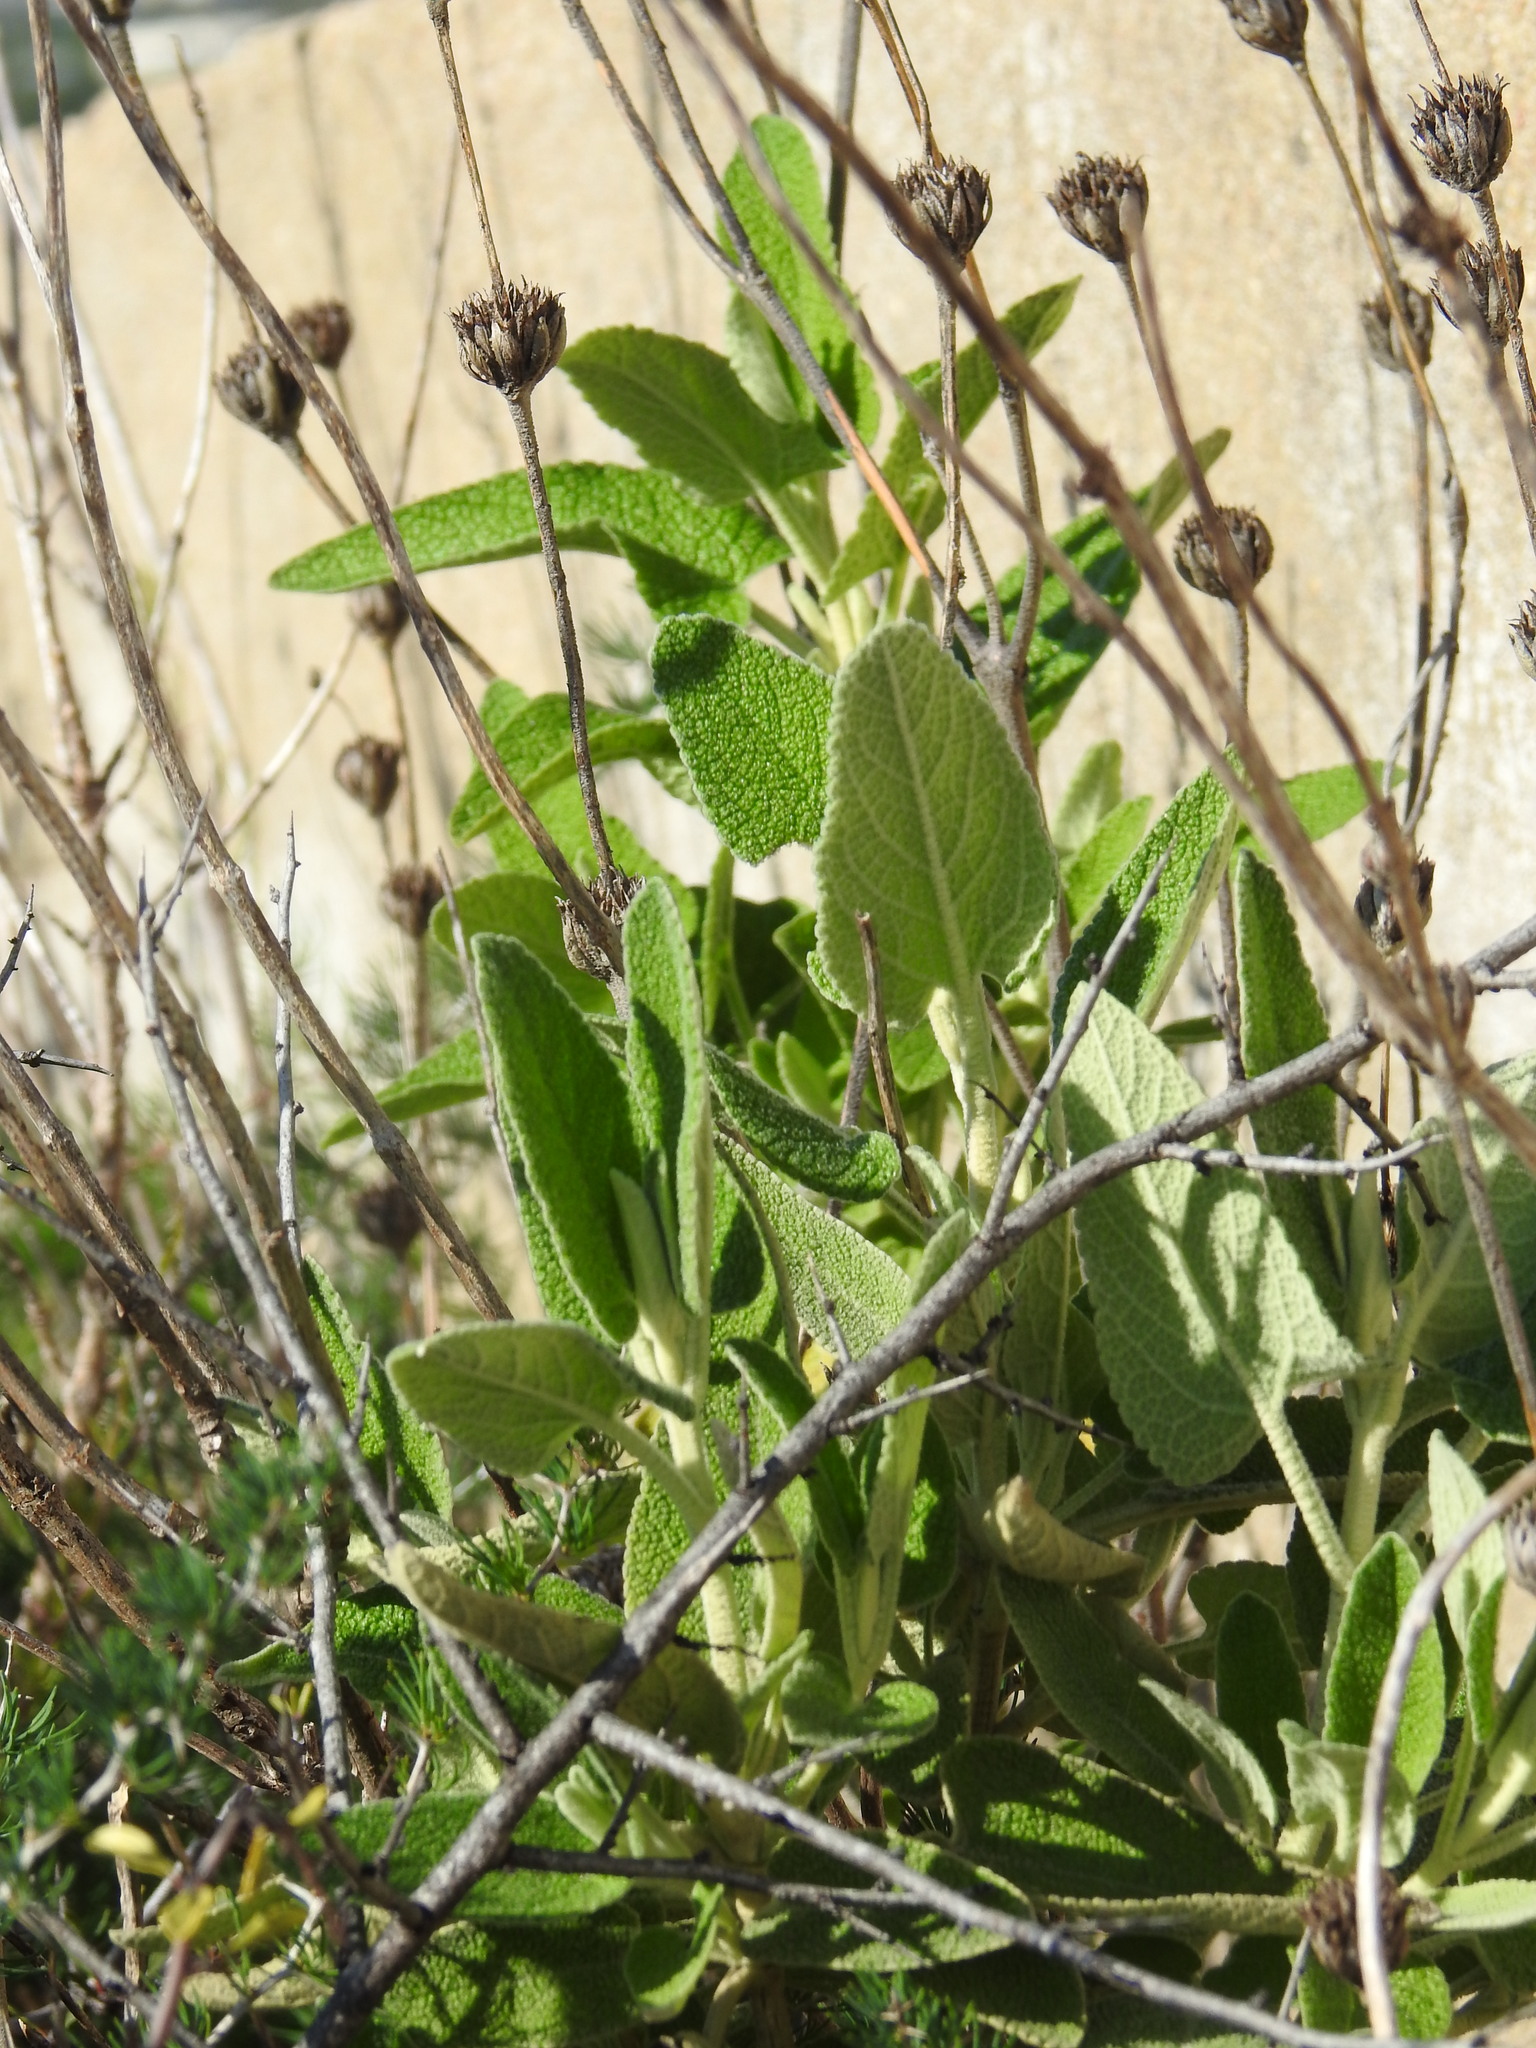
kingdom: Plantae
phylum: Tracheophyta
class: Magnoliopsida
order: Lamiales
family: Lamiaceae
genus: Phlomis
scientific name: Phlomis purpurea
